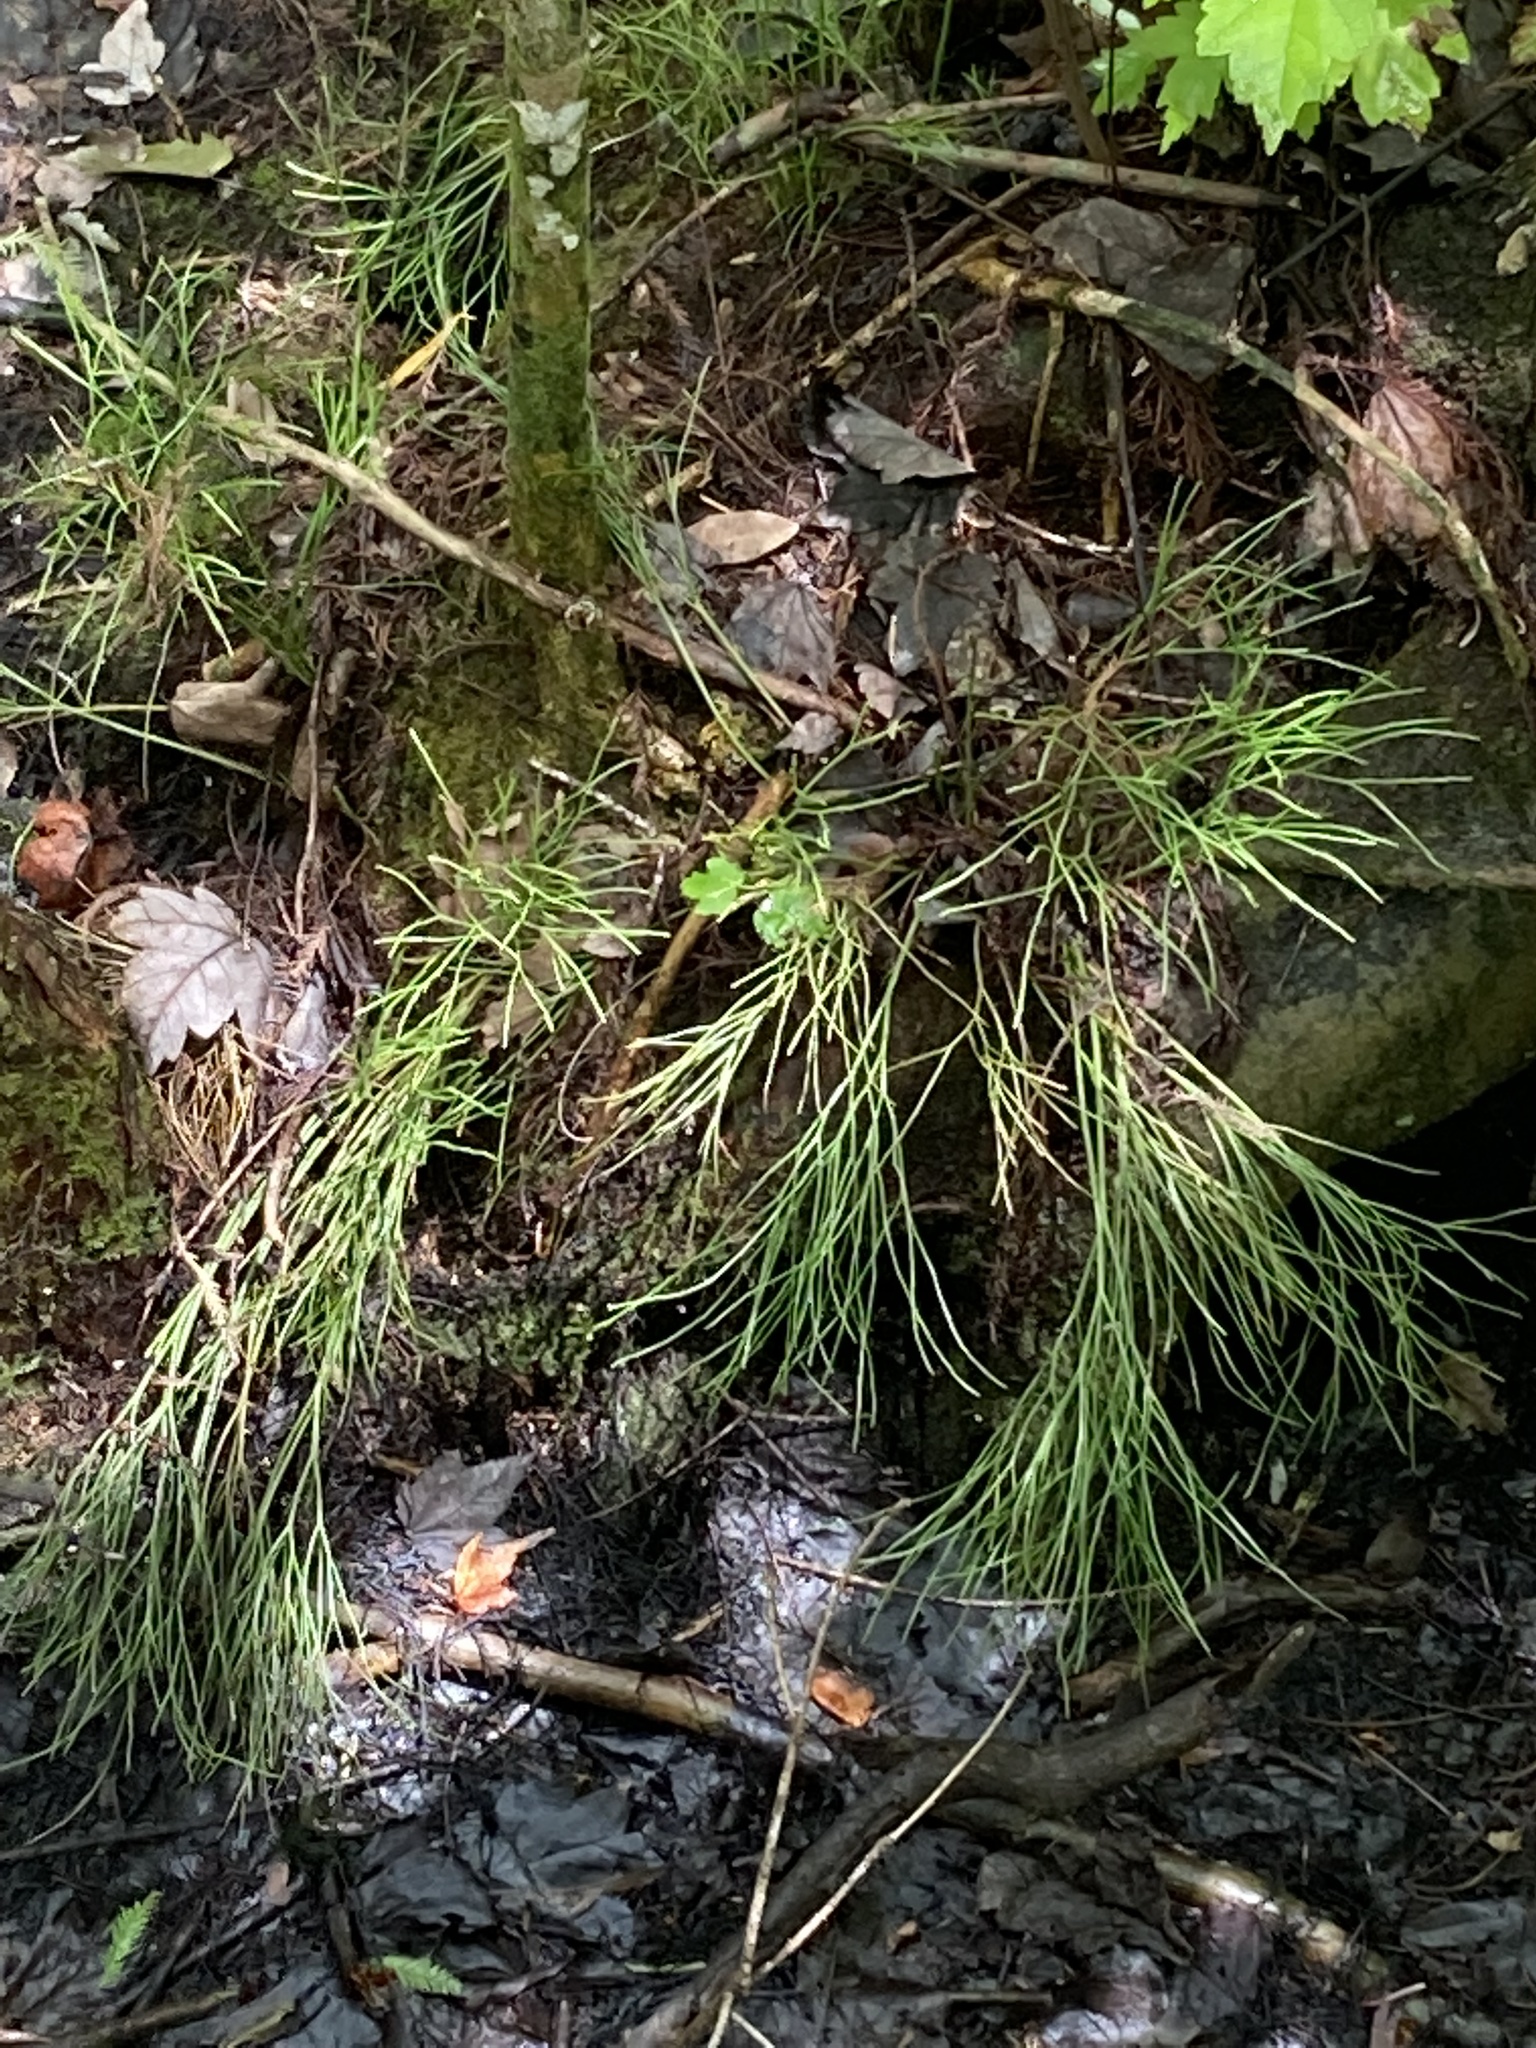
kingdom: Plantae
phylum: Tracheophyta
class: Polypodiopsida
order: Psilotales
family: Psilotaceae
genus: Psilotum
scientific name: Psilotum nudum
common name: Skeleton fork fern
